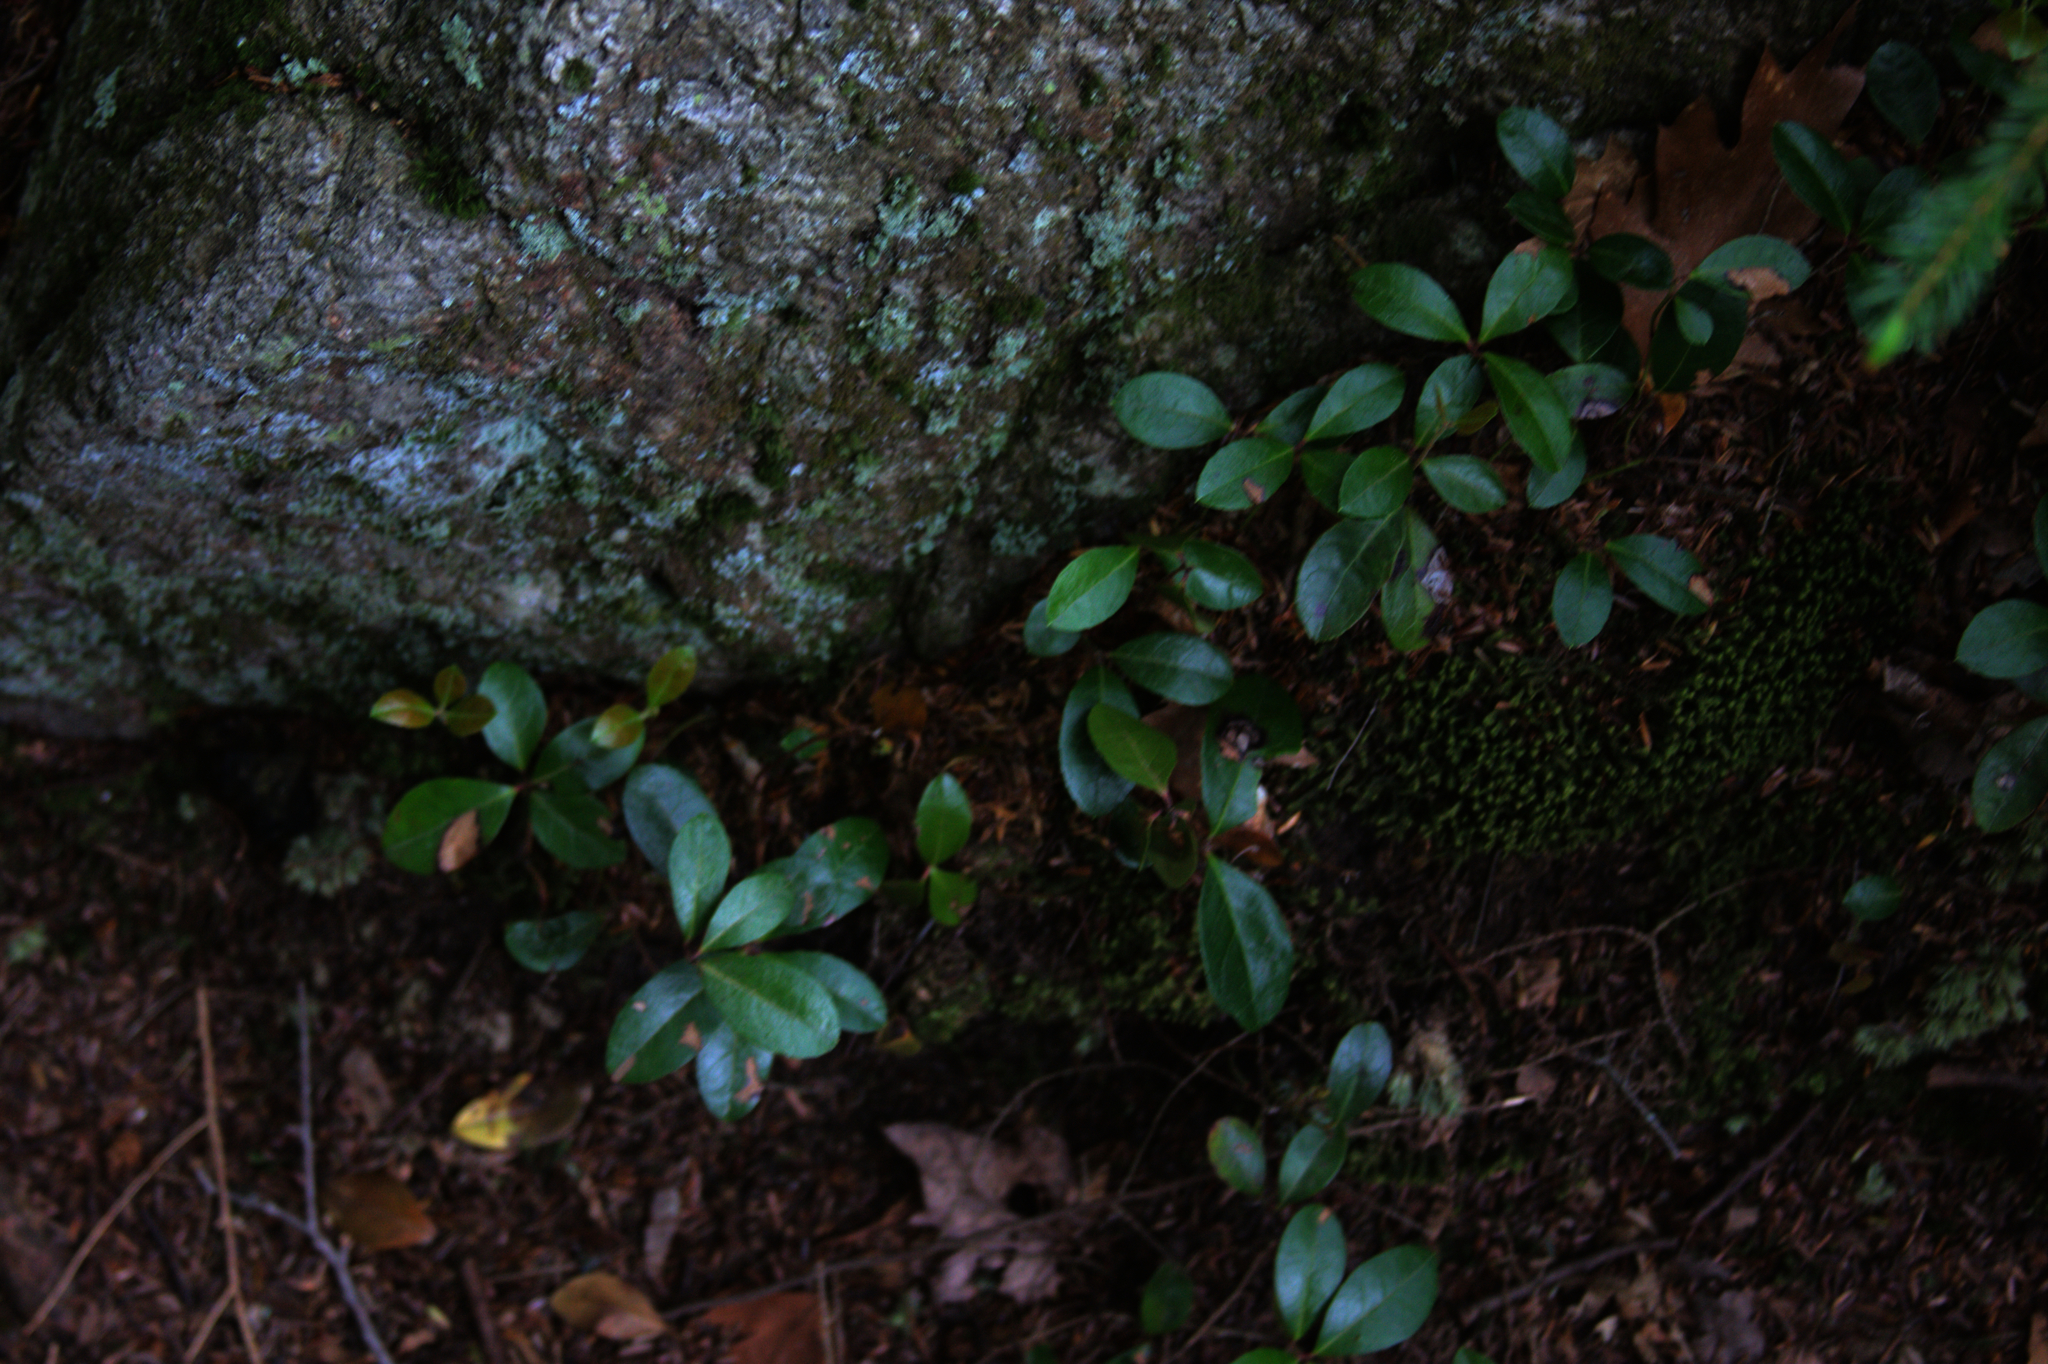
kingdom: Plantae
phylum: Tracheophyta
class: Magnoliopsida
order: Ericales
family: Ericaceae
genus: Gaultheria
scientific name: Gaultheria procumbens
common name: Checkerberry
